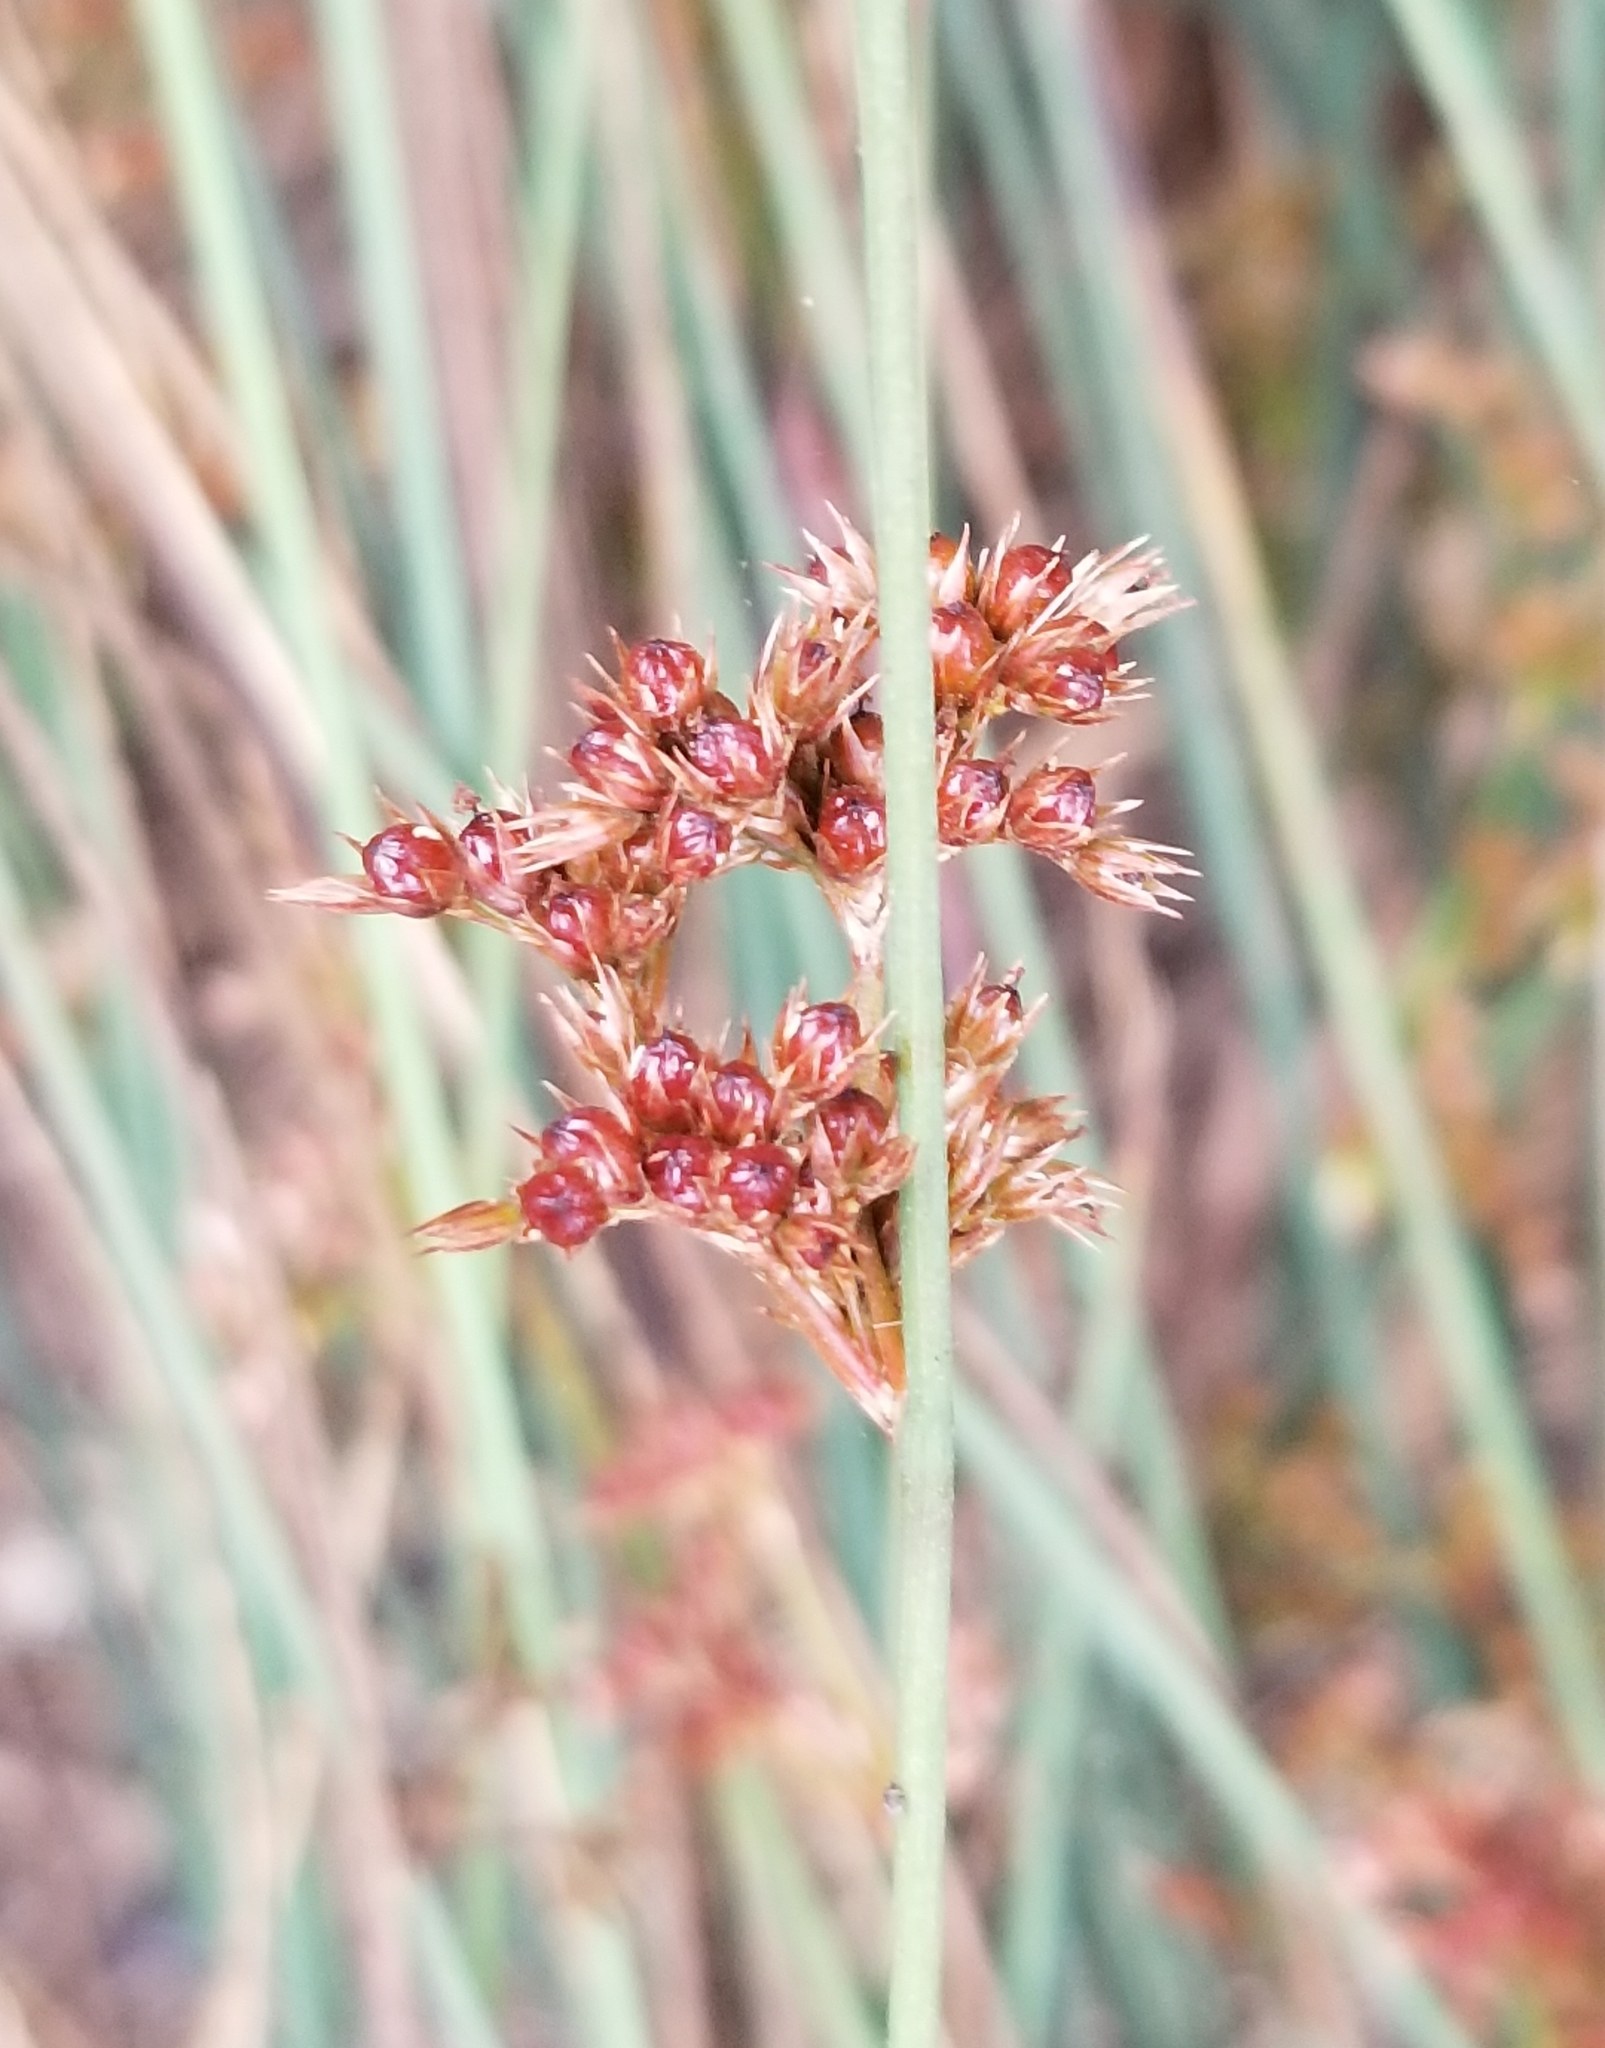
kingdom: Plantae
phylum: Tracheophyta
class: Liliopsida
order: Poales
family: Juncaceae
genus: Juncus
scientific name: Juncus patens
